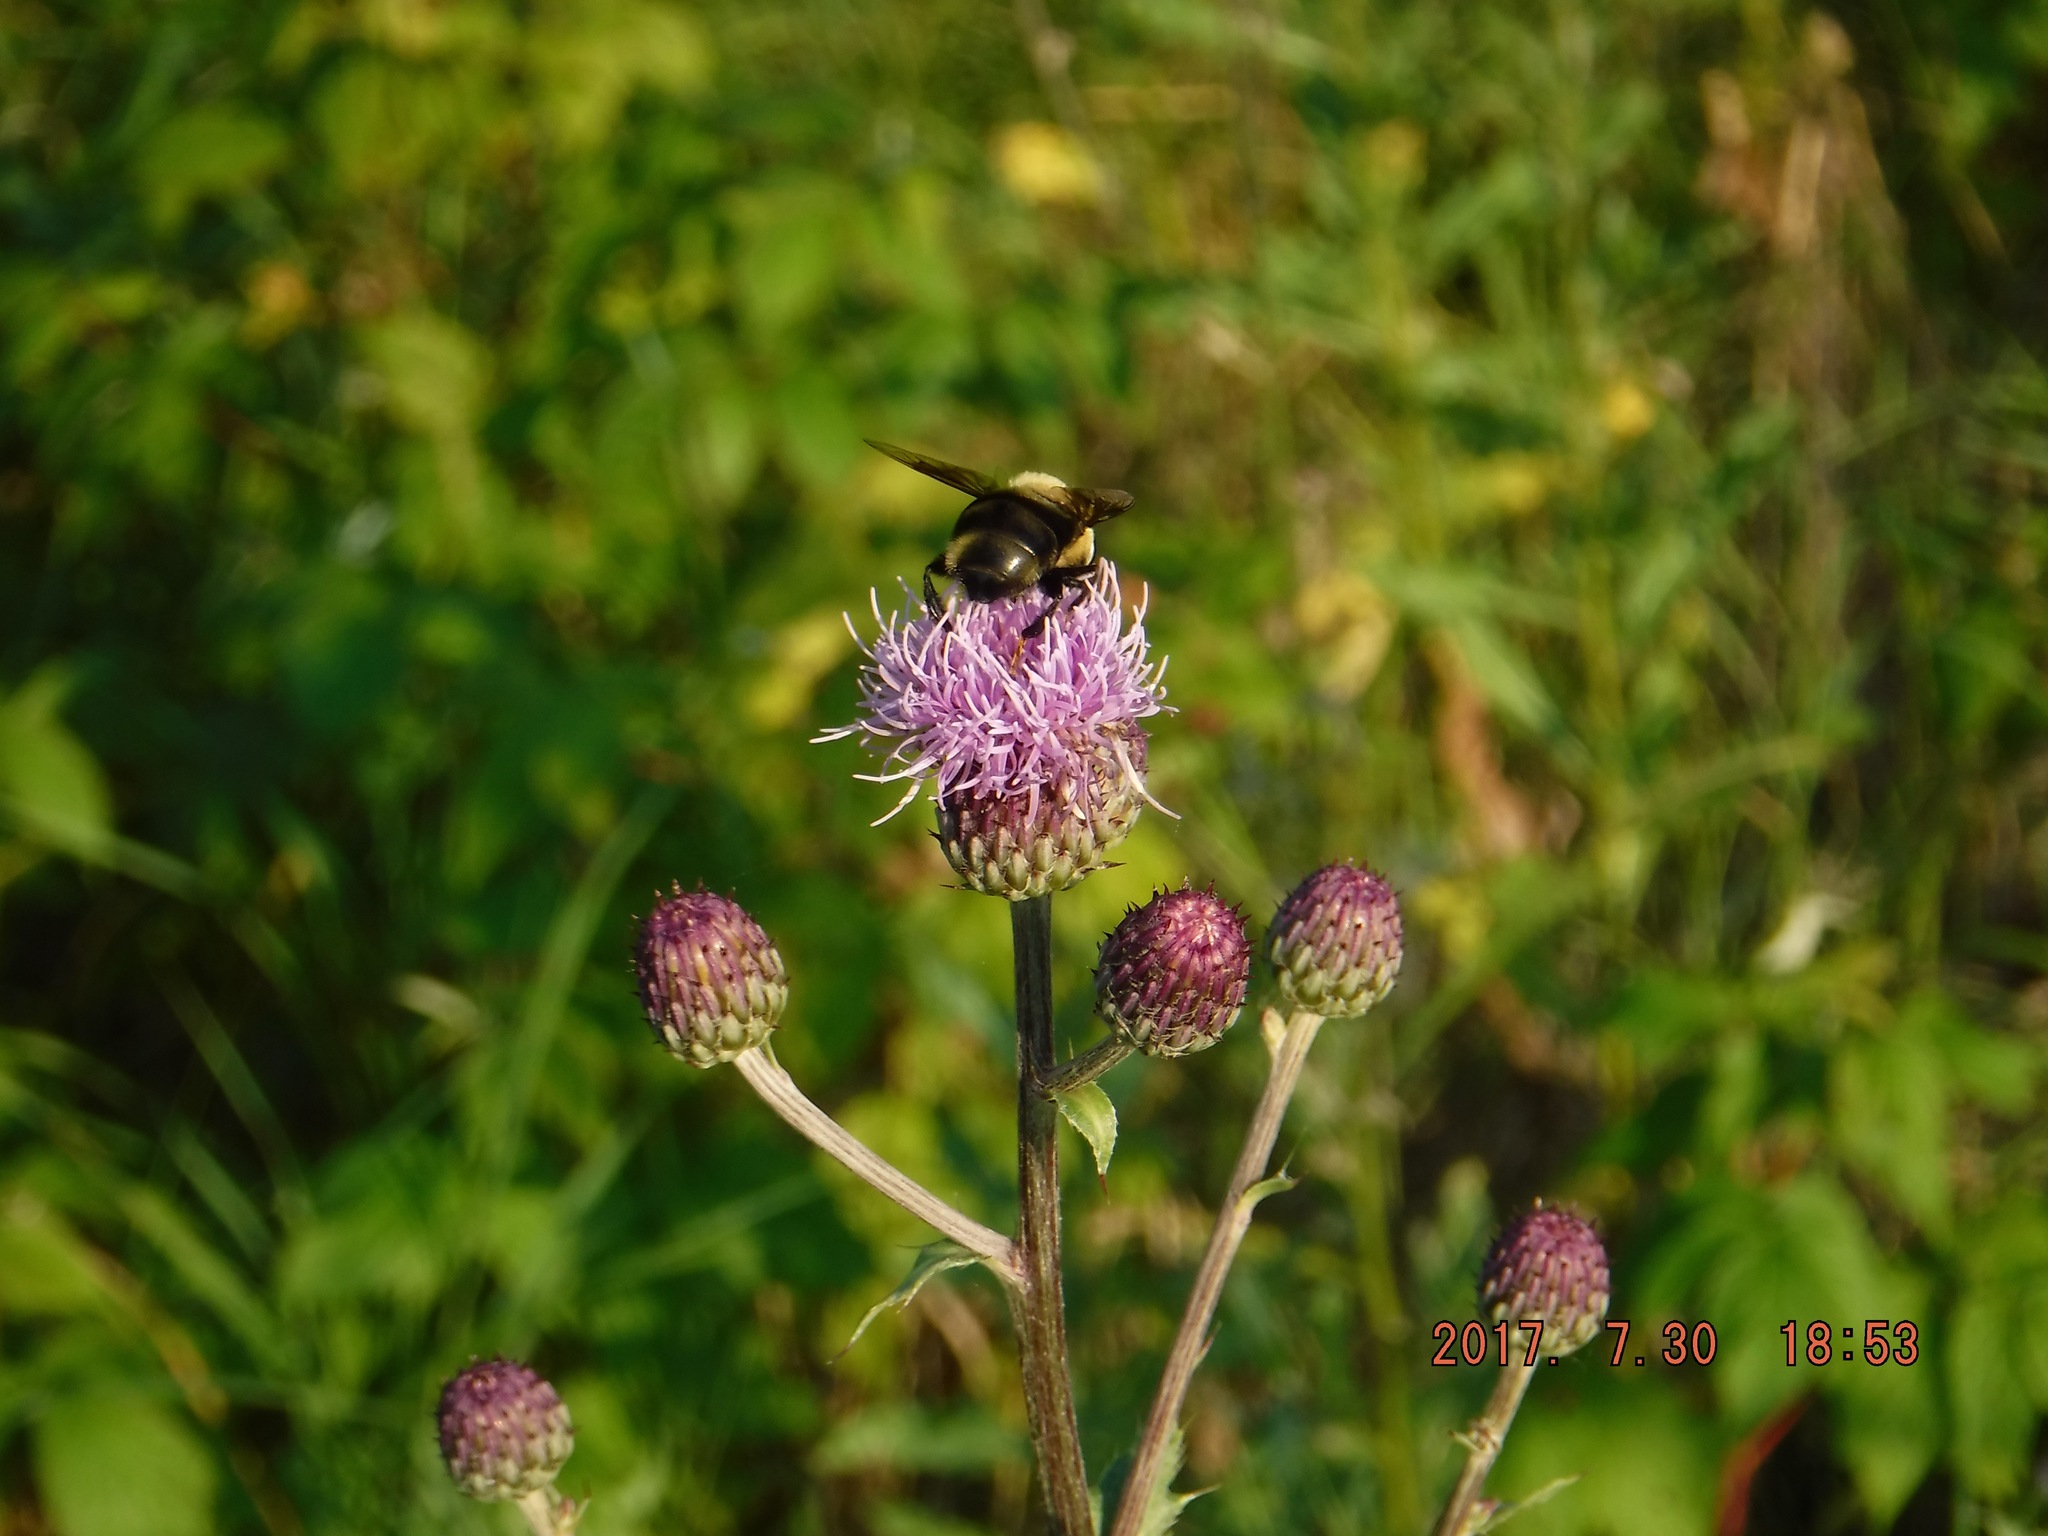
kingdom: Animalia
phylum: Arthropoda
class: Insecta
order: Diptera
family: Syrphidae
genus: Eristalis
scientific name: Eristalis flavipes
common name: Orange-legged drone fly
